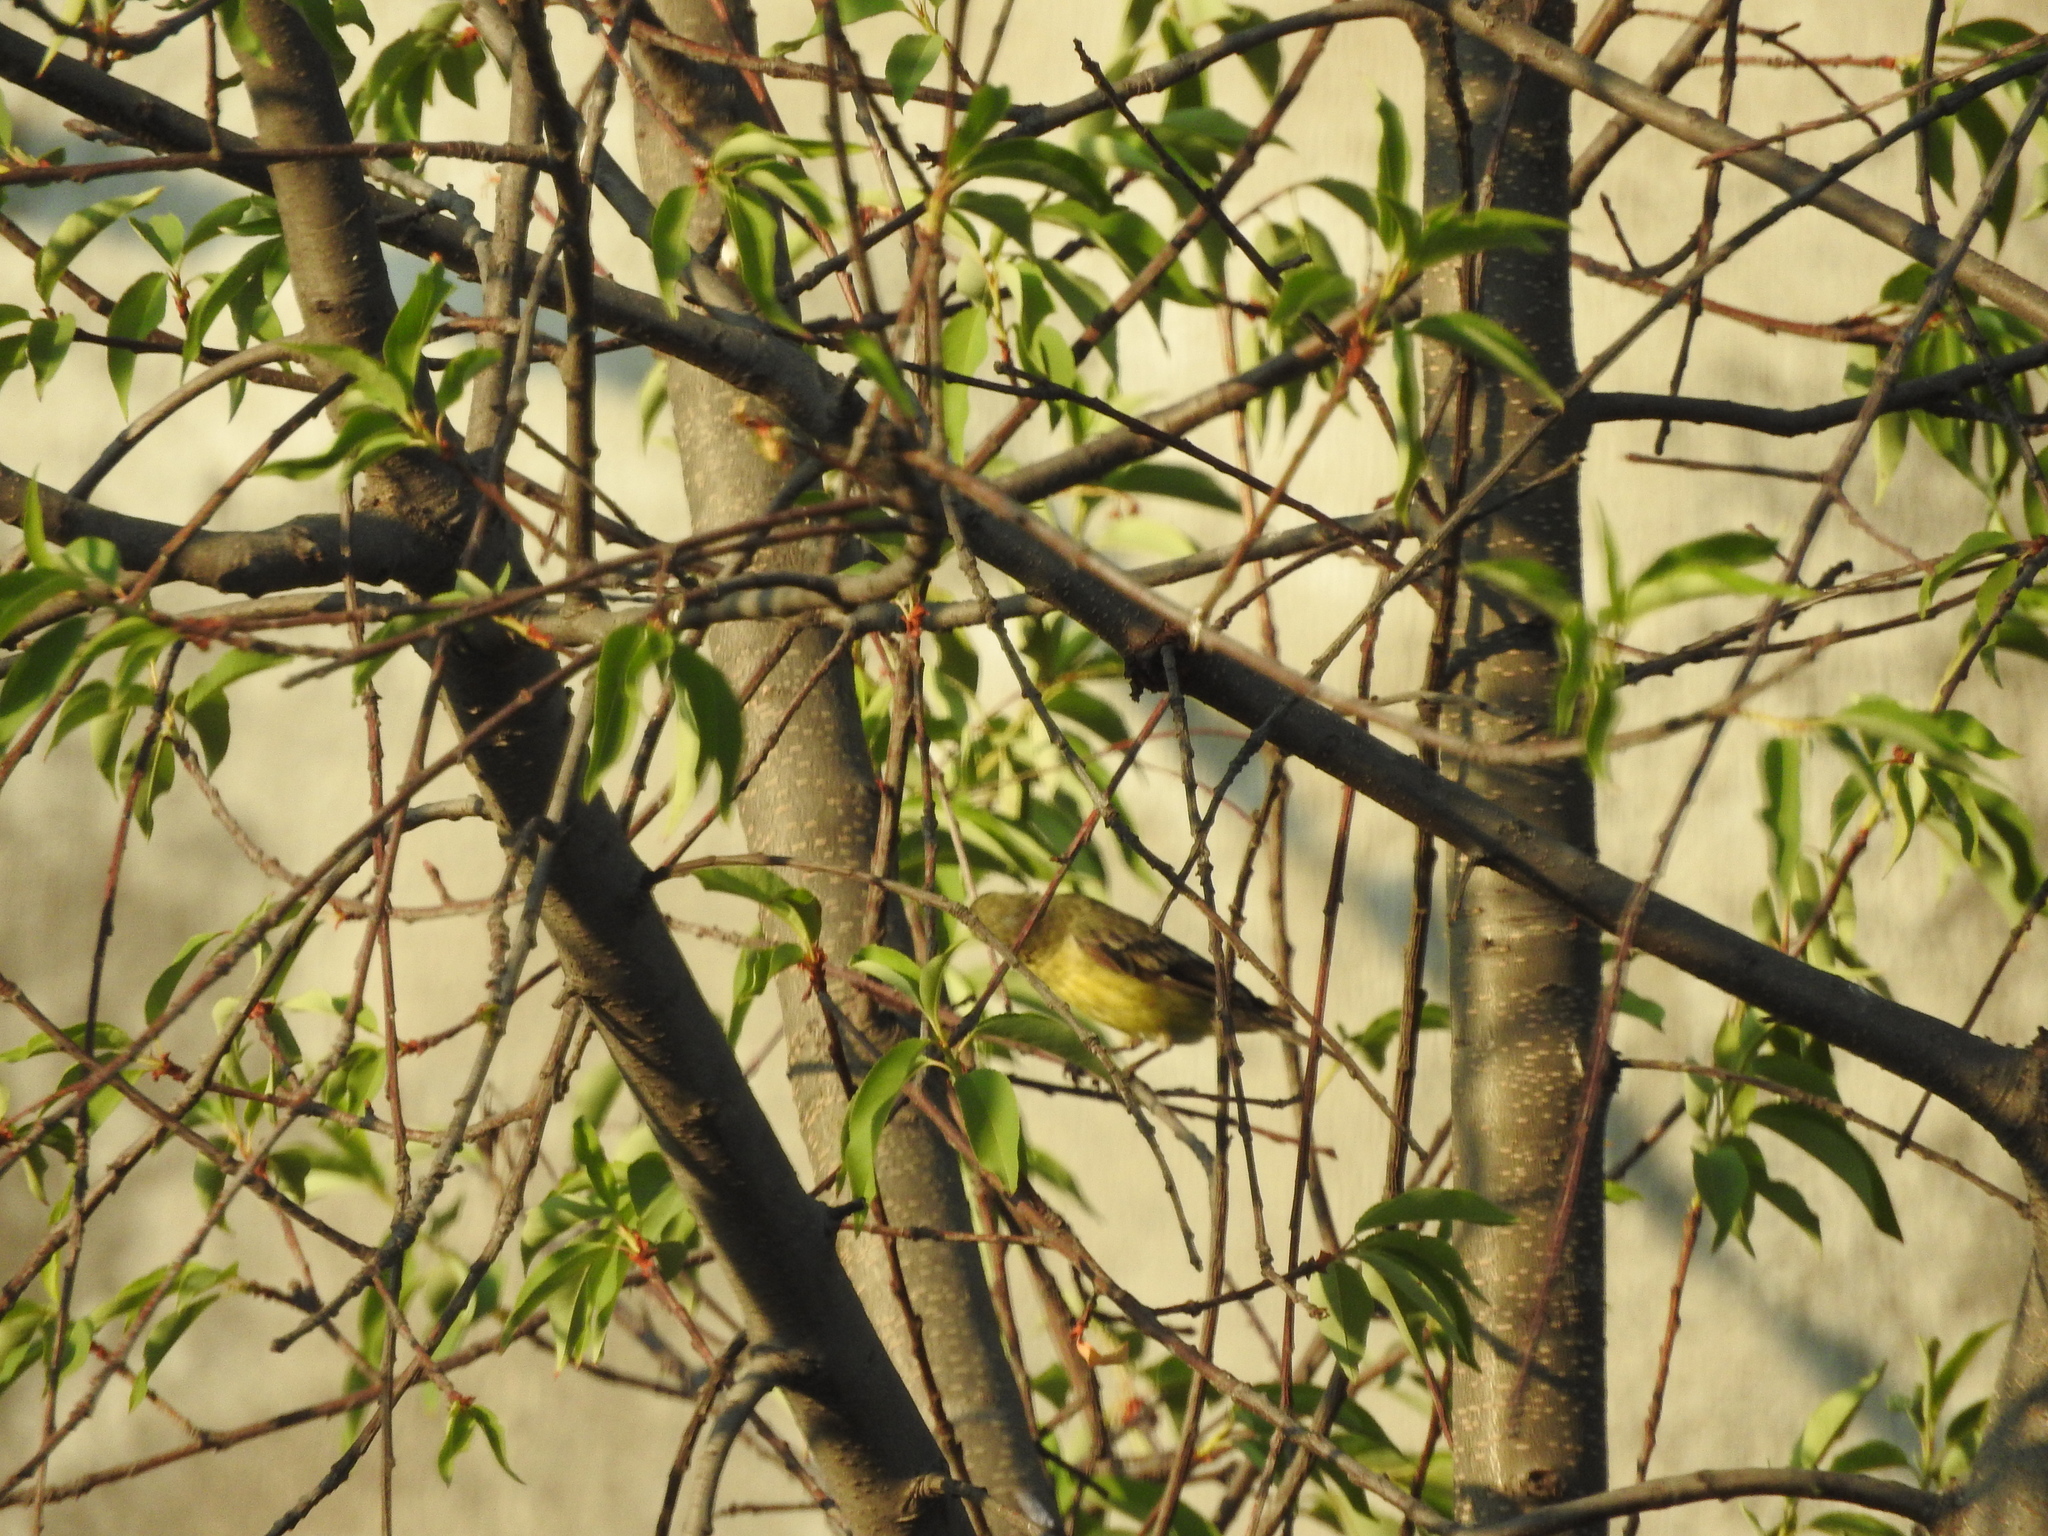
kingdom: Animalia
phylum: Chordata
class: Aves
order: Passeriformes
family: Fringillidae
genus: Spinus
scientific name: Spinus psaltria
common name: Lesser goldfinch
